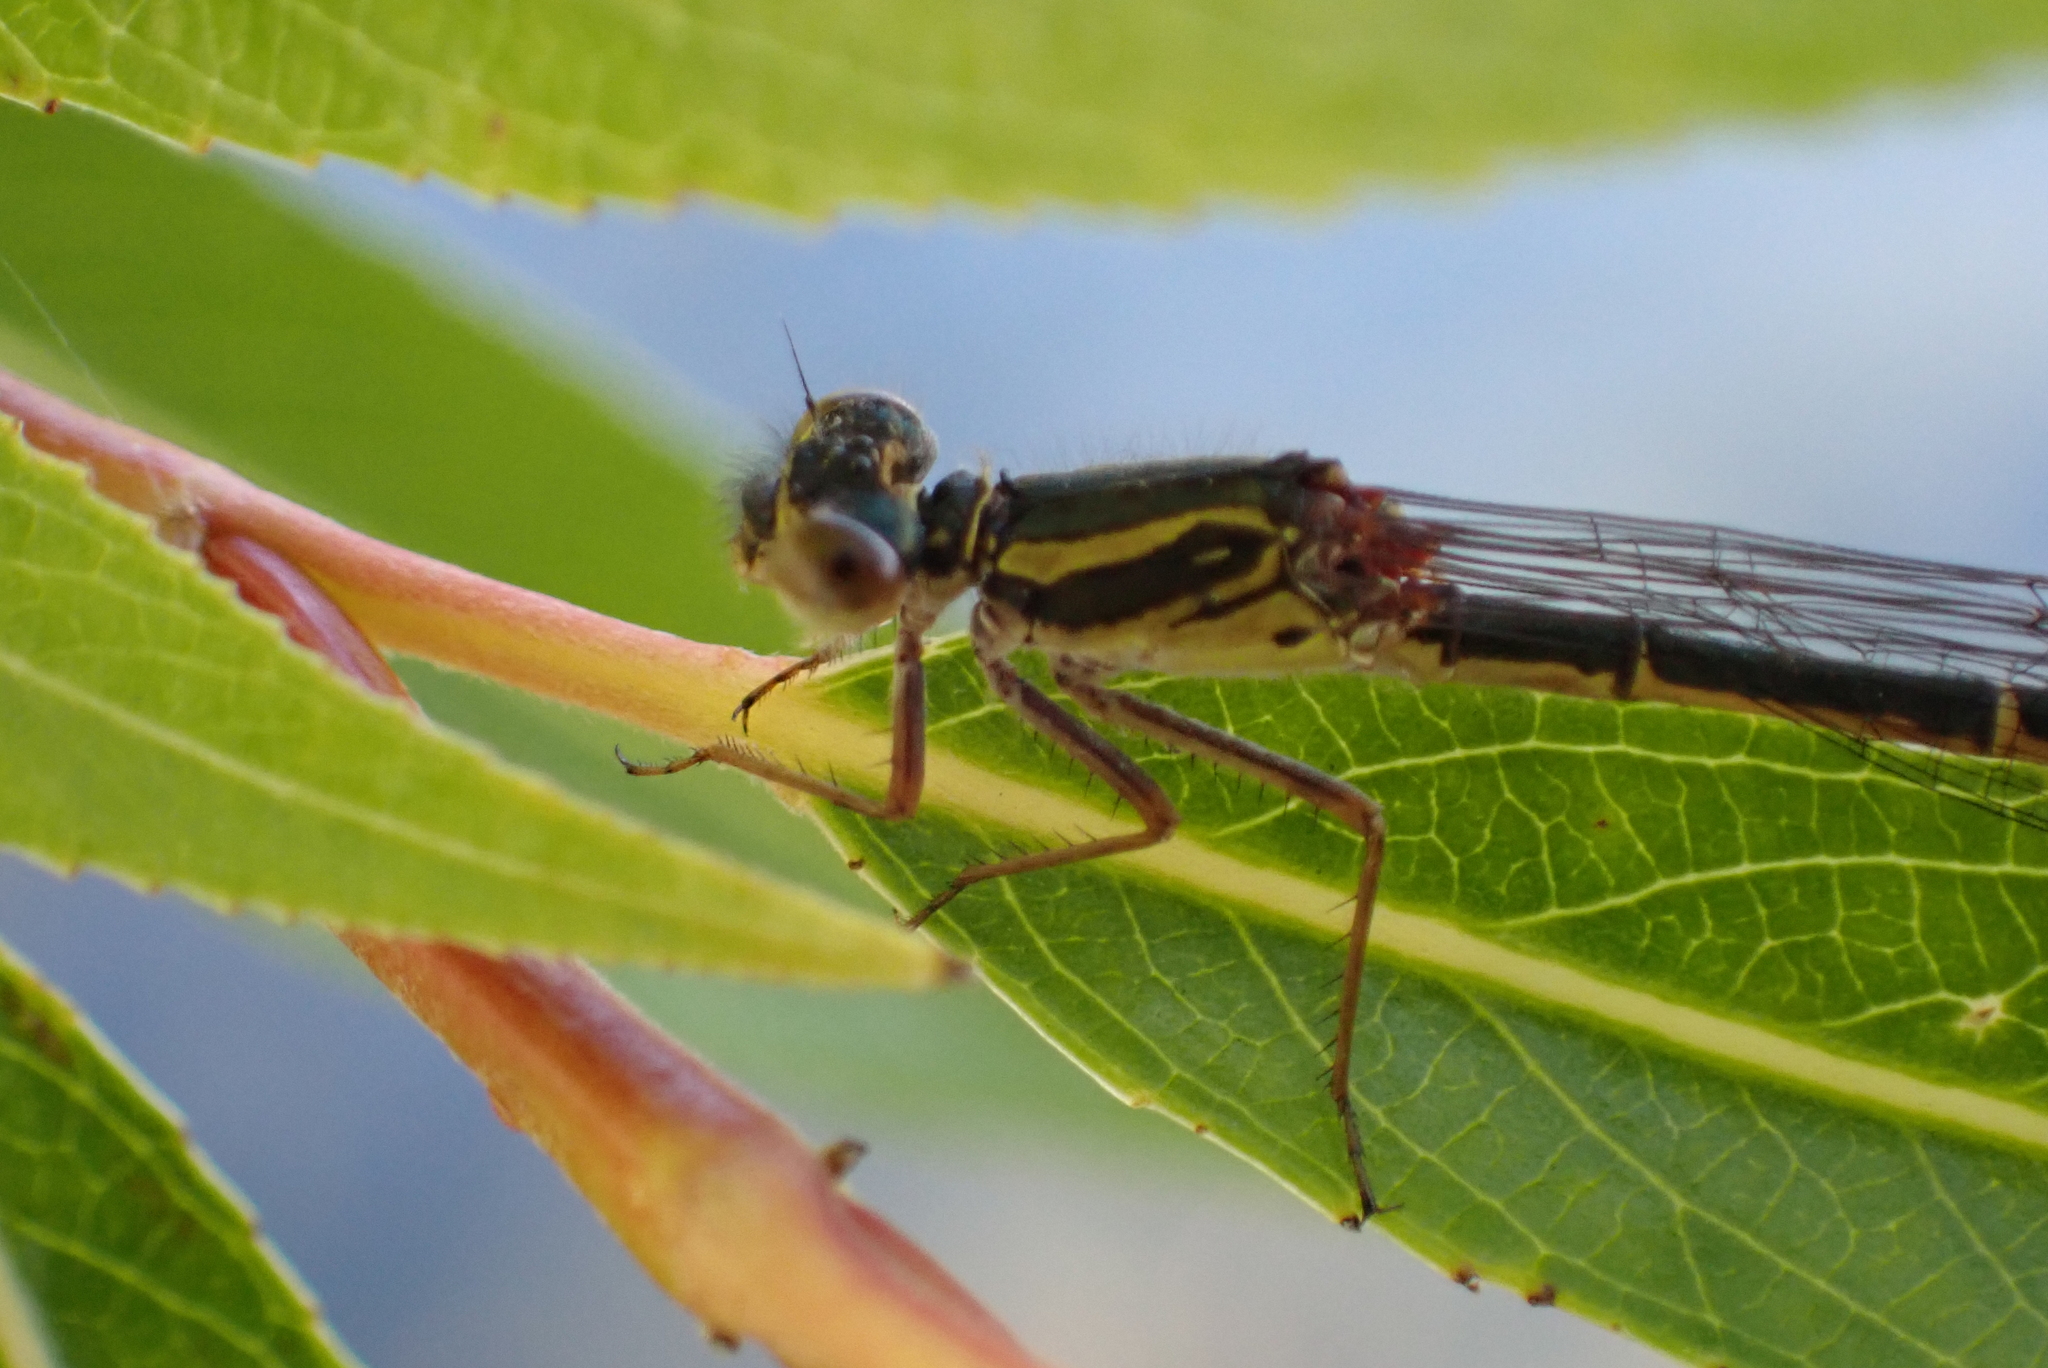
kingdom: Animalia
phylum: Arthropoda
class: Insecta
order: Odonata
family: Coenagrionidae
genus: Xanthocnemis
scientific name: Xanthocnemis zealandica
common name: Common redcoat damselfly
